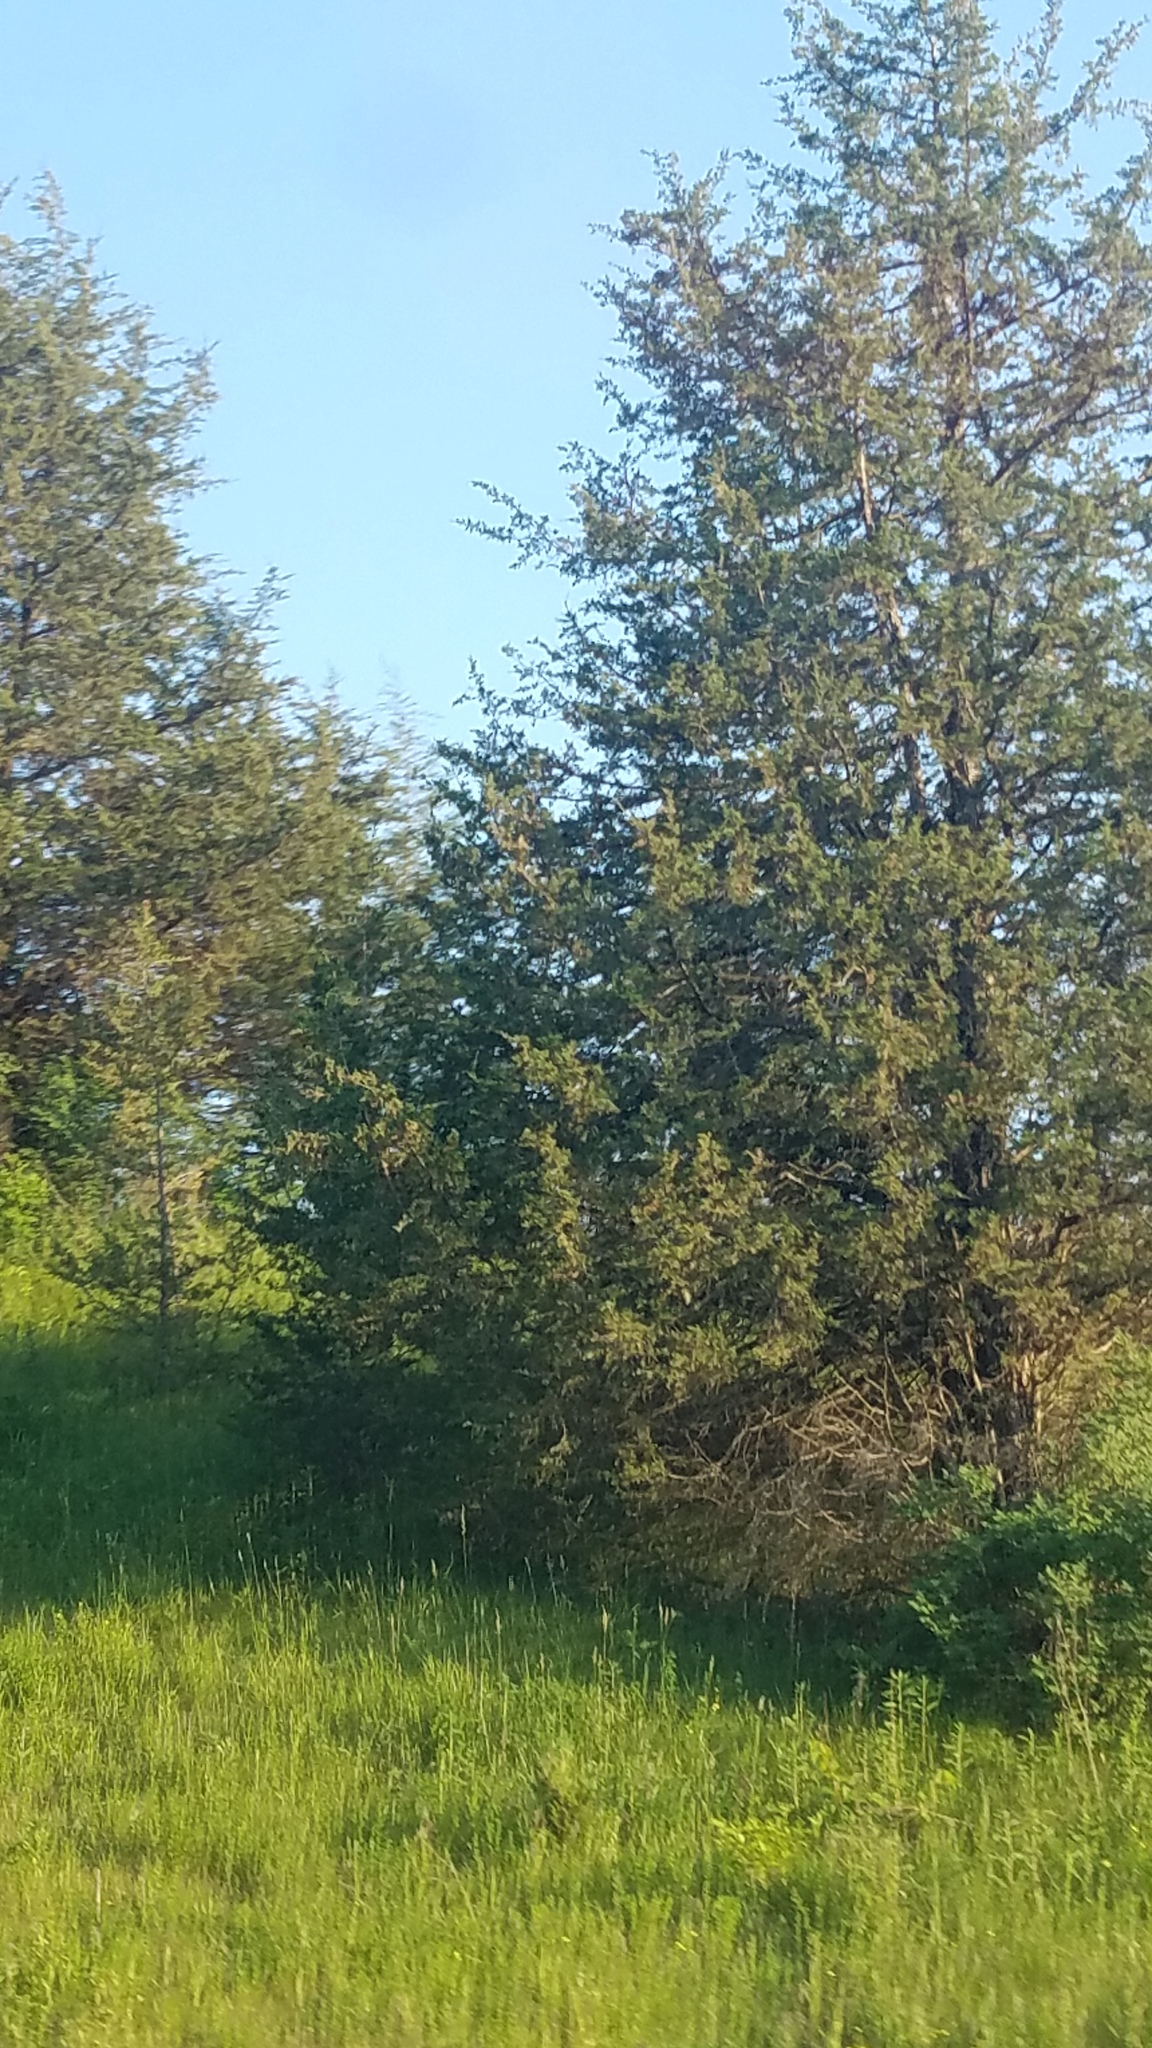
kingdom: Plantae
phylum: Tracheophyta
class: Pinopsida
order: Pinales
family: Cupressaceae
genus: Juniperus
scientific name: Juniperus virginiana
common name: Red juniper
